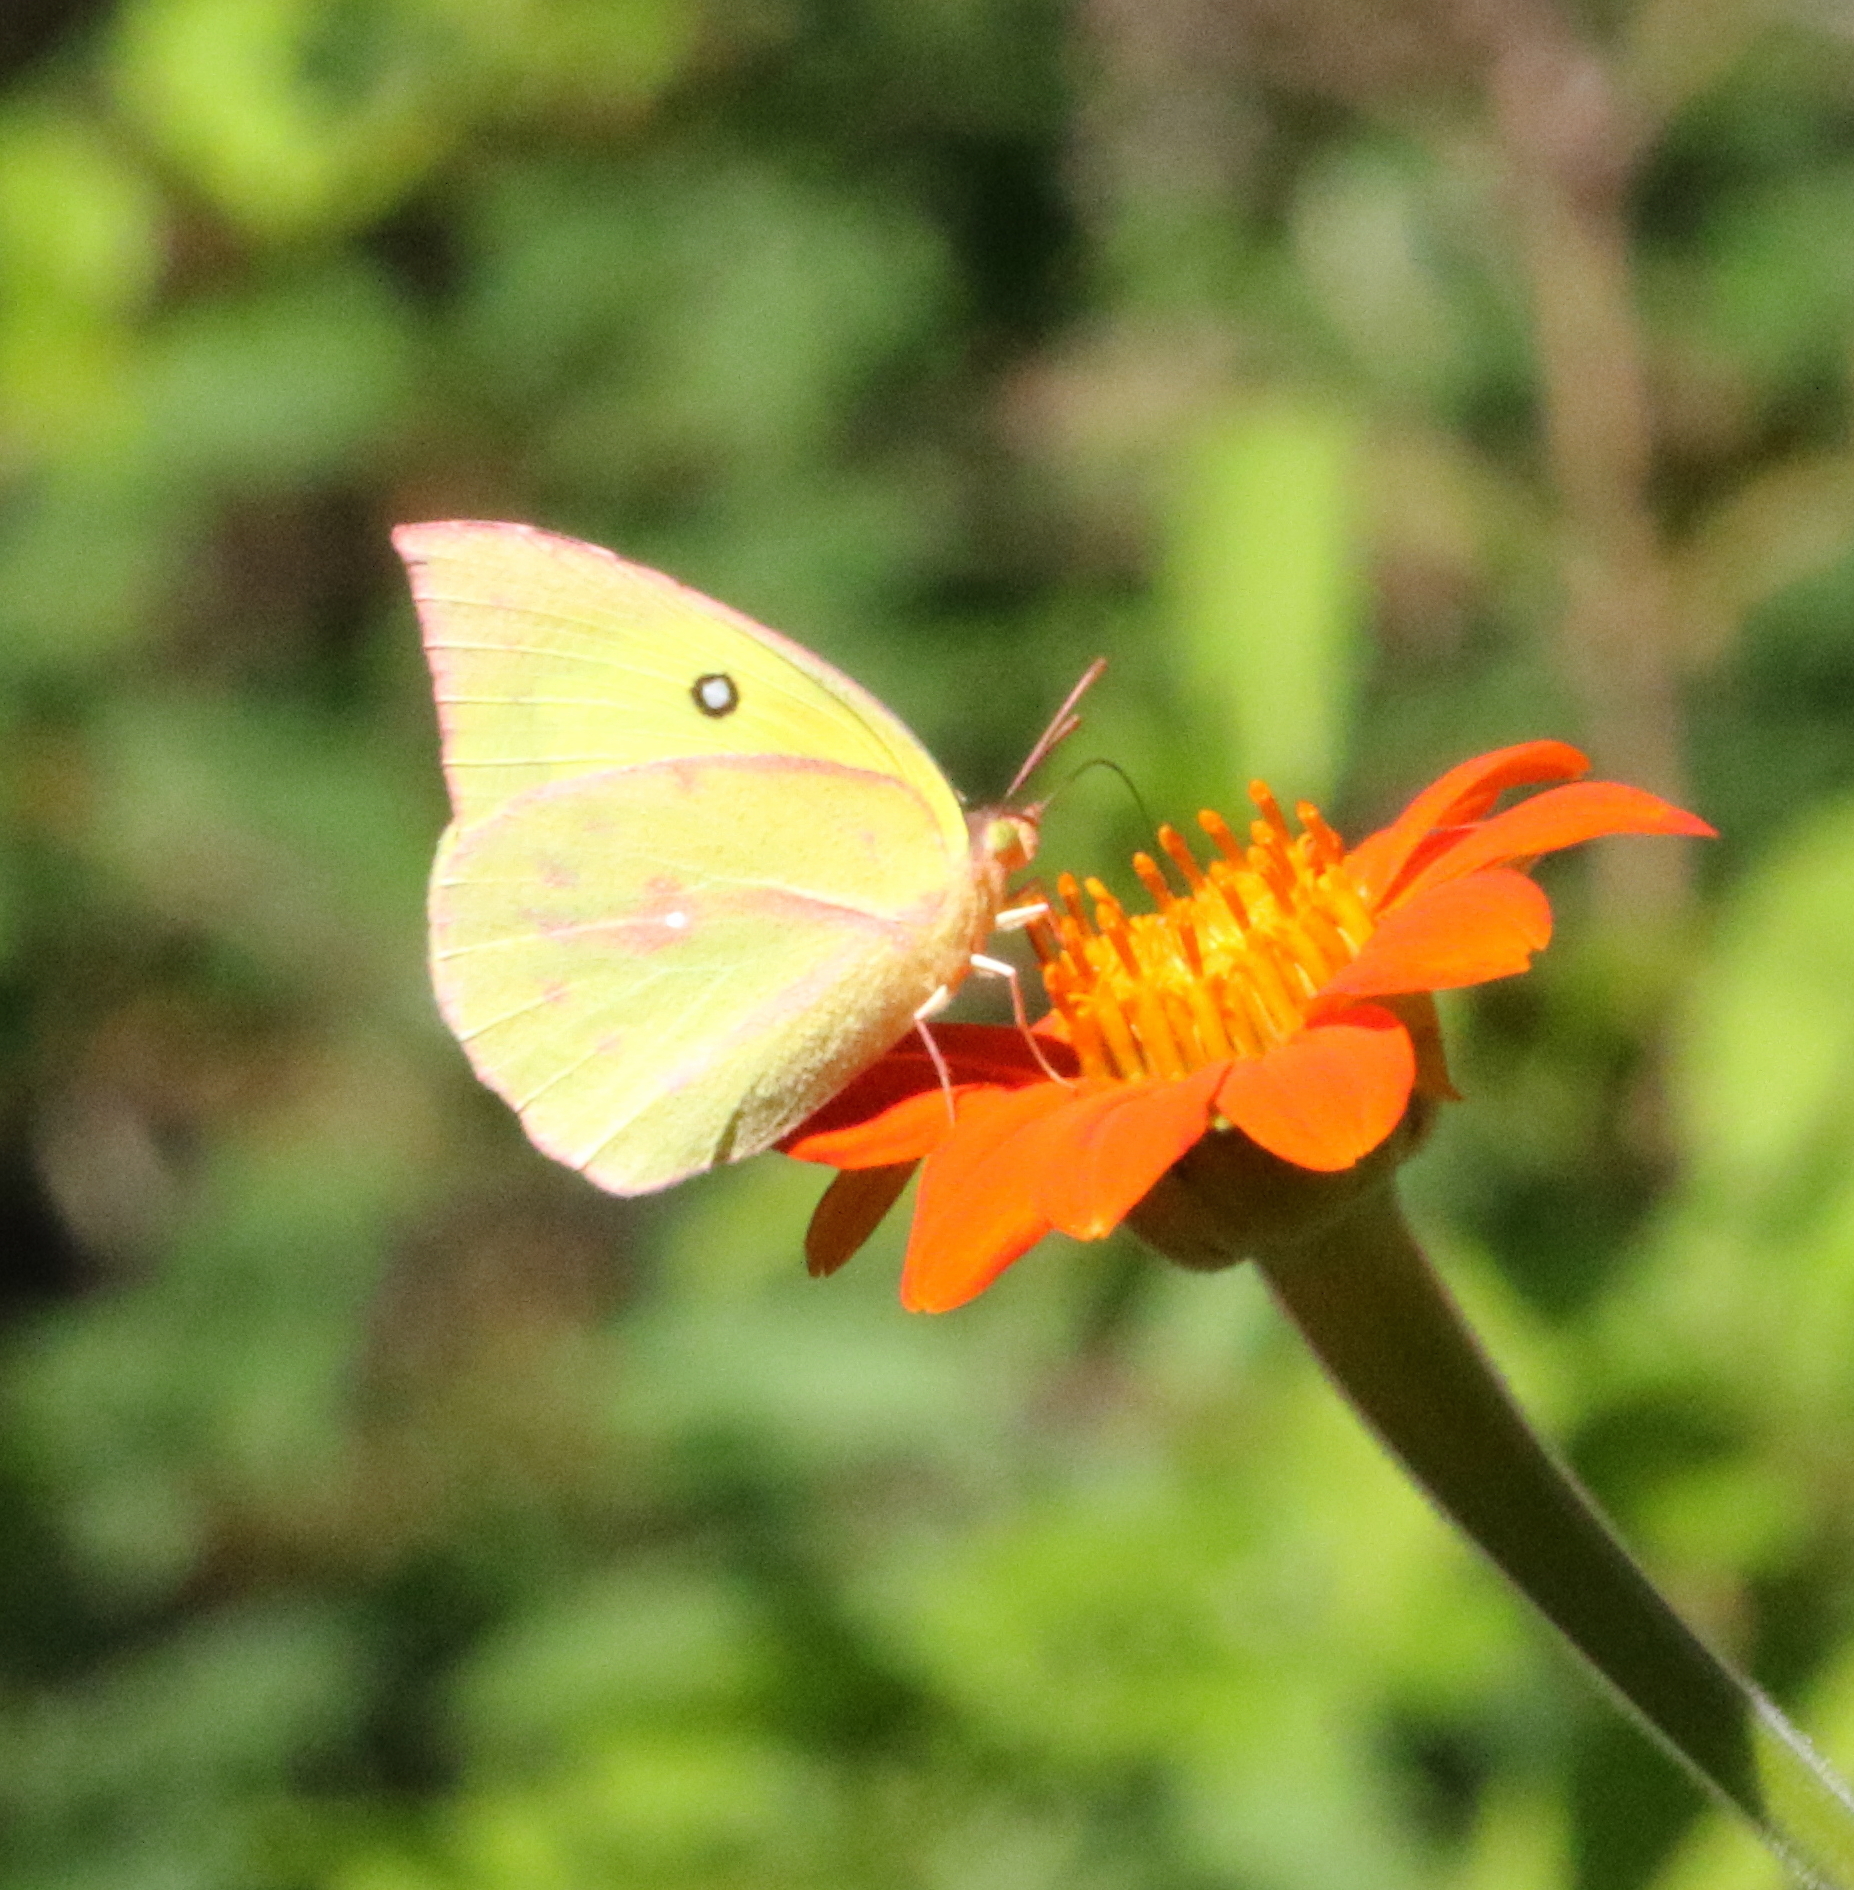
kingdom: Animalia
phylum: Arthropoda
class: Insecta
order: Lepidoptera
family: Pieridae
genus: Zerene
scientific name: Zerene cesonia
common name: Southern dogface
